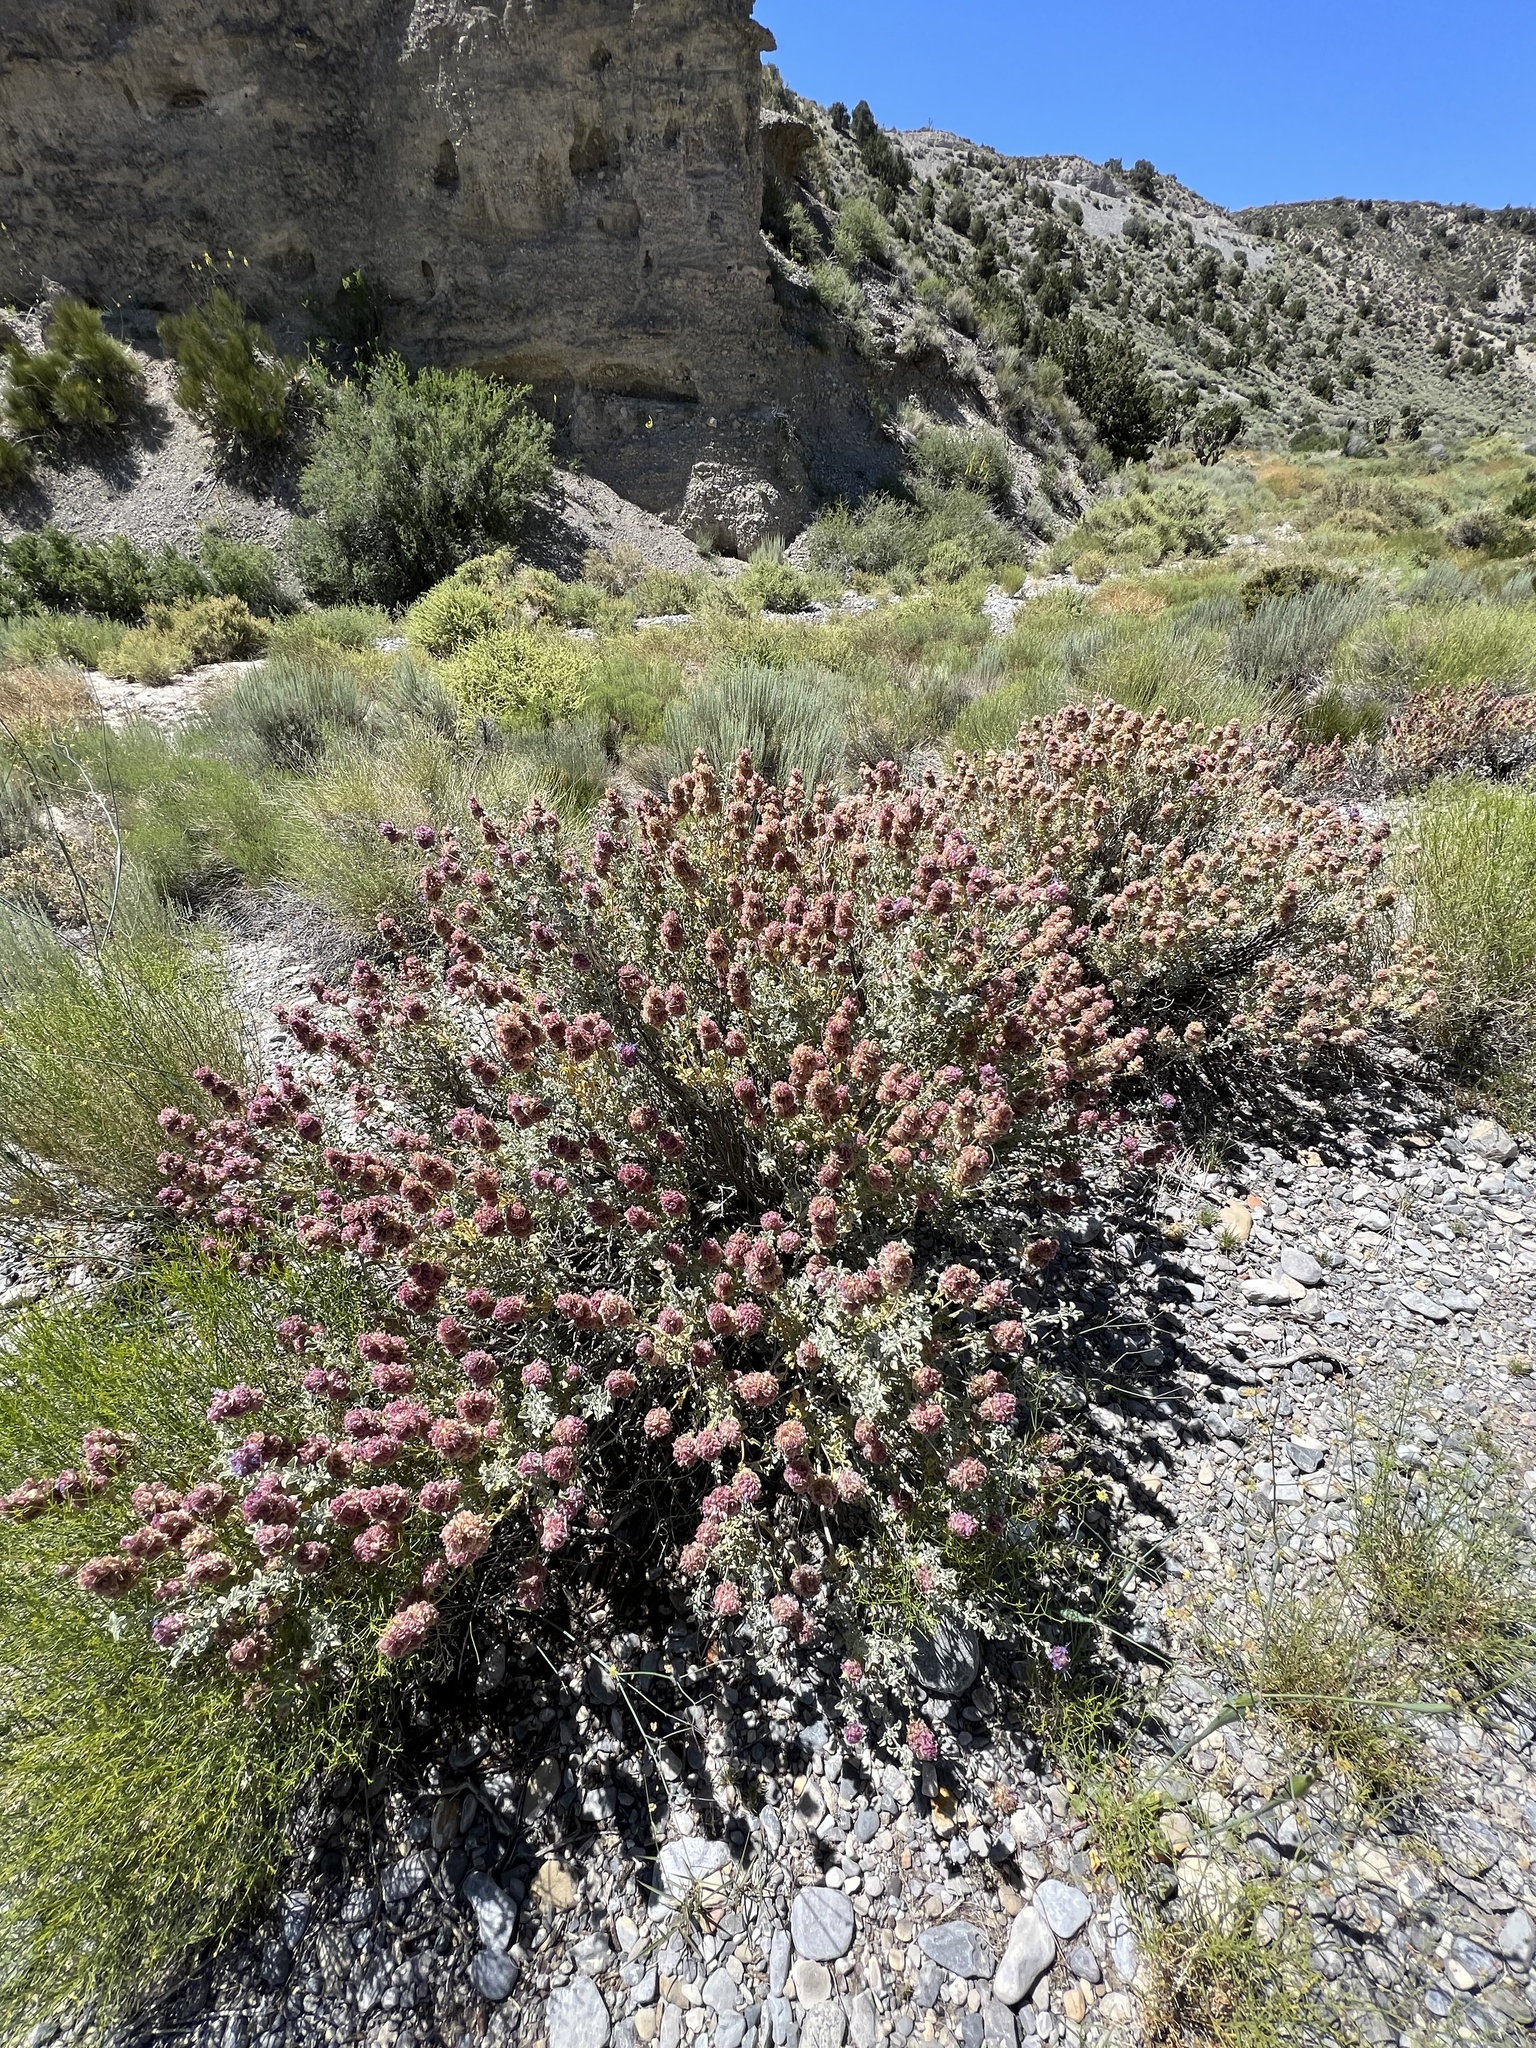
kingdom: Plantae
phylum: Tracheophyta
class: Magnoliopsida
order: Lamiales
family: Lamiaceae
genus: Salvia
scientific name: Salvia dorrii
